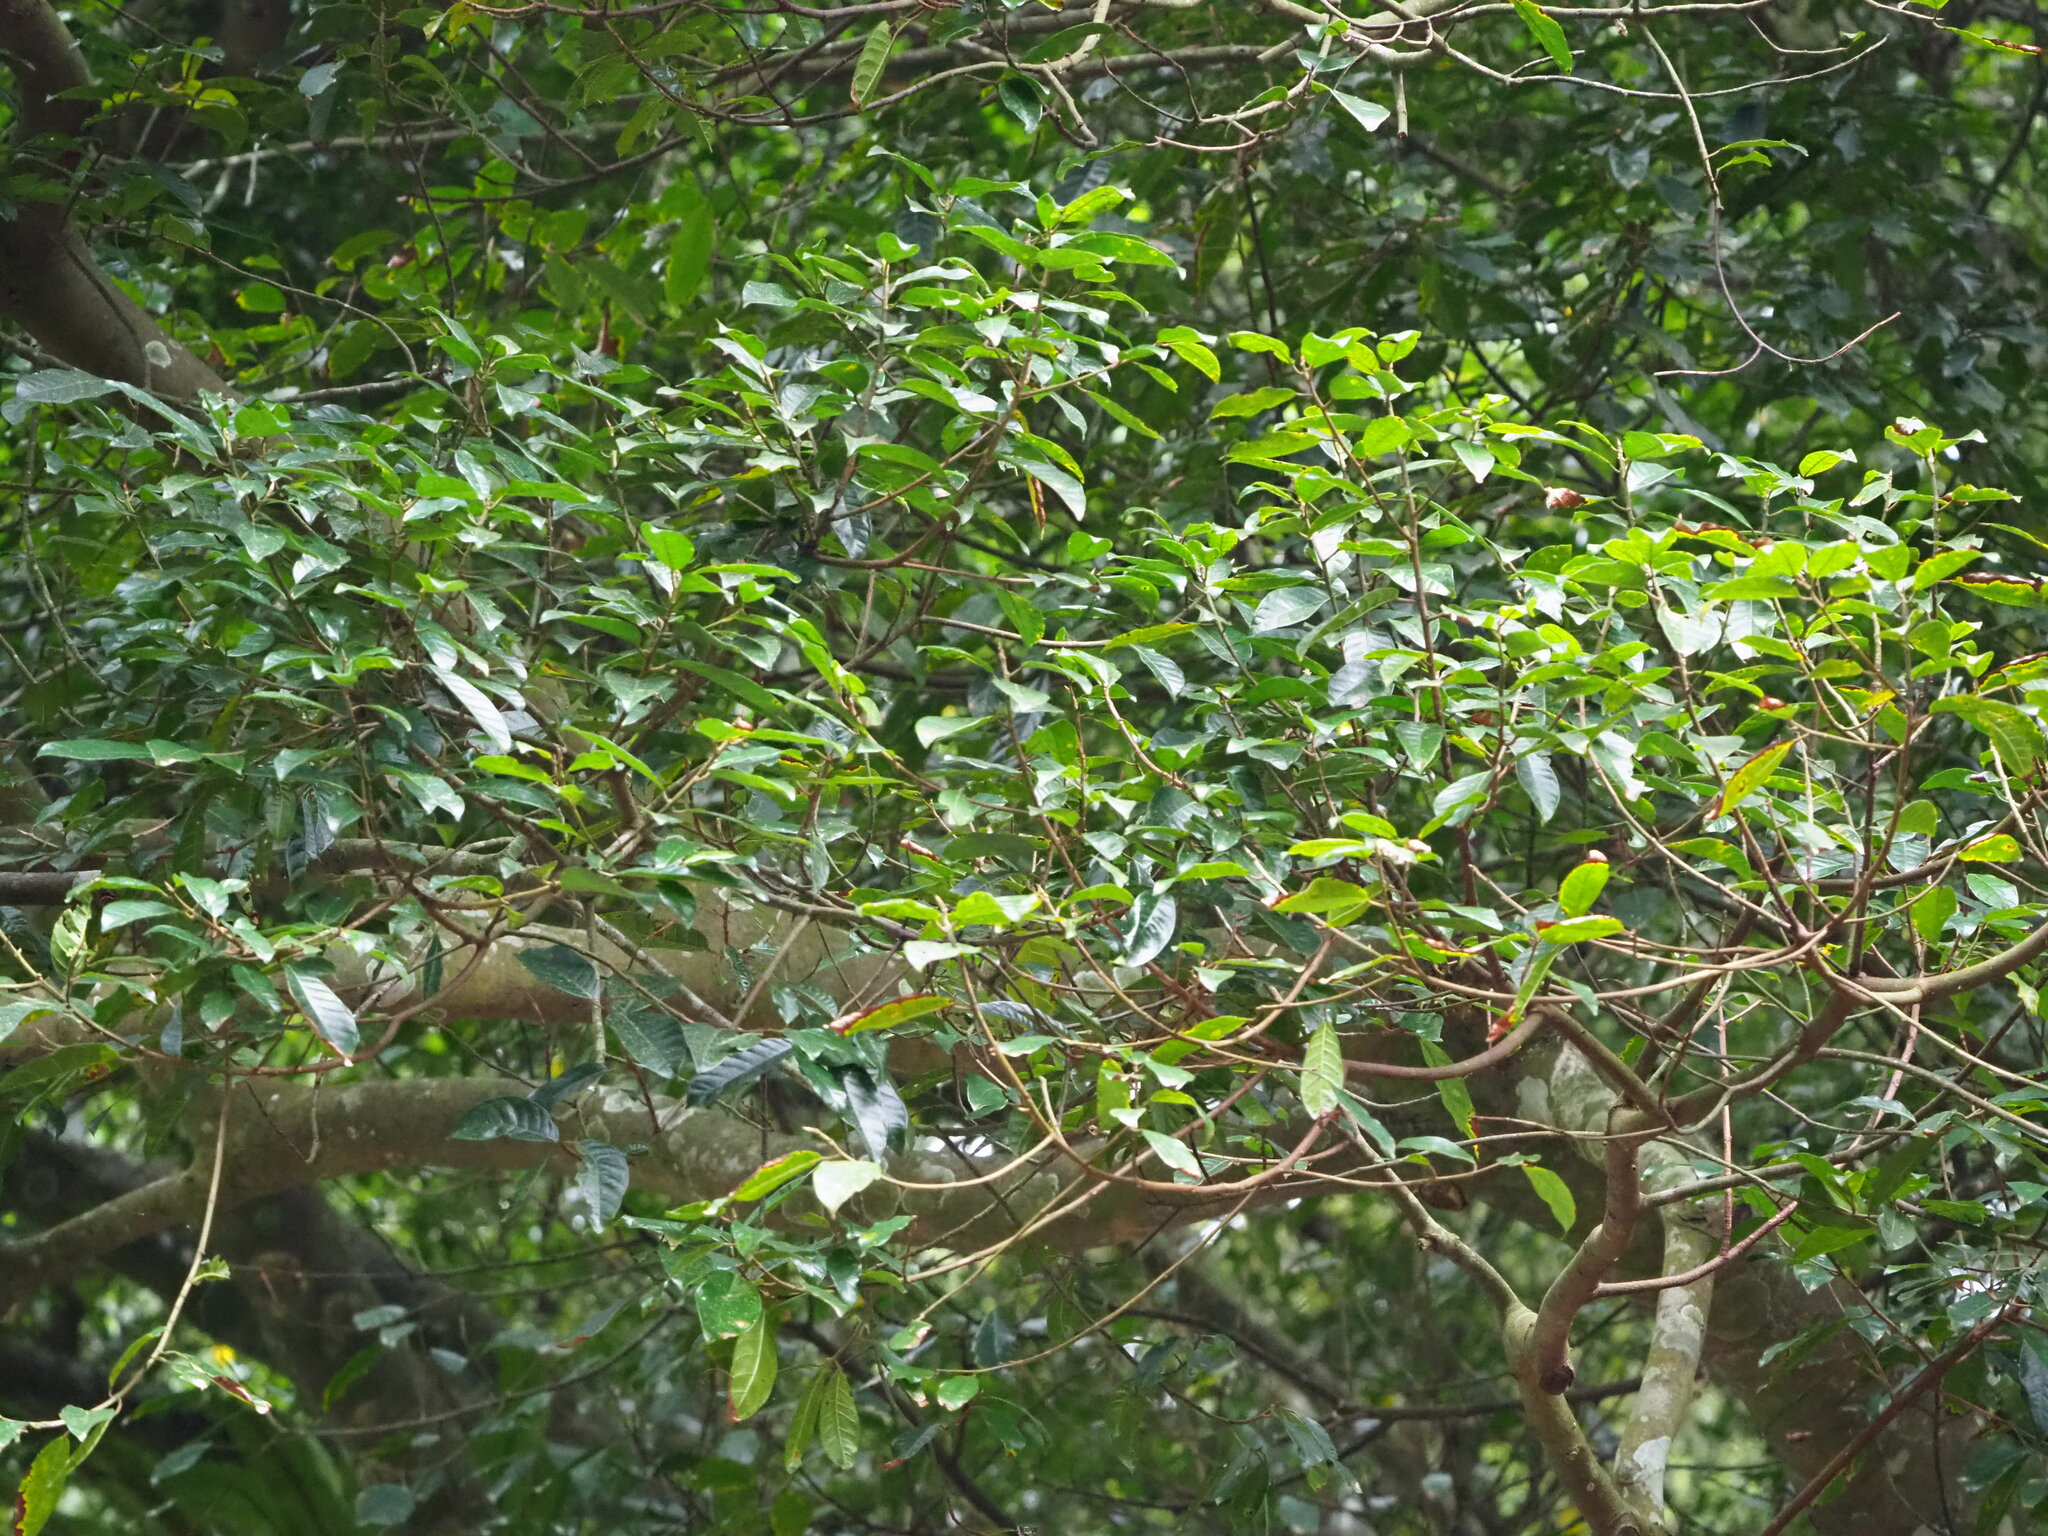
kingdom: Plantae
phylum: Tracheophyta
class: Magnoliopsida
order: Rosales
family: Moraceae
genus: Ficus
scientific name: Ficus nervosa
